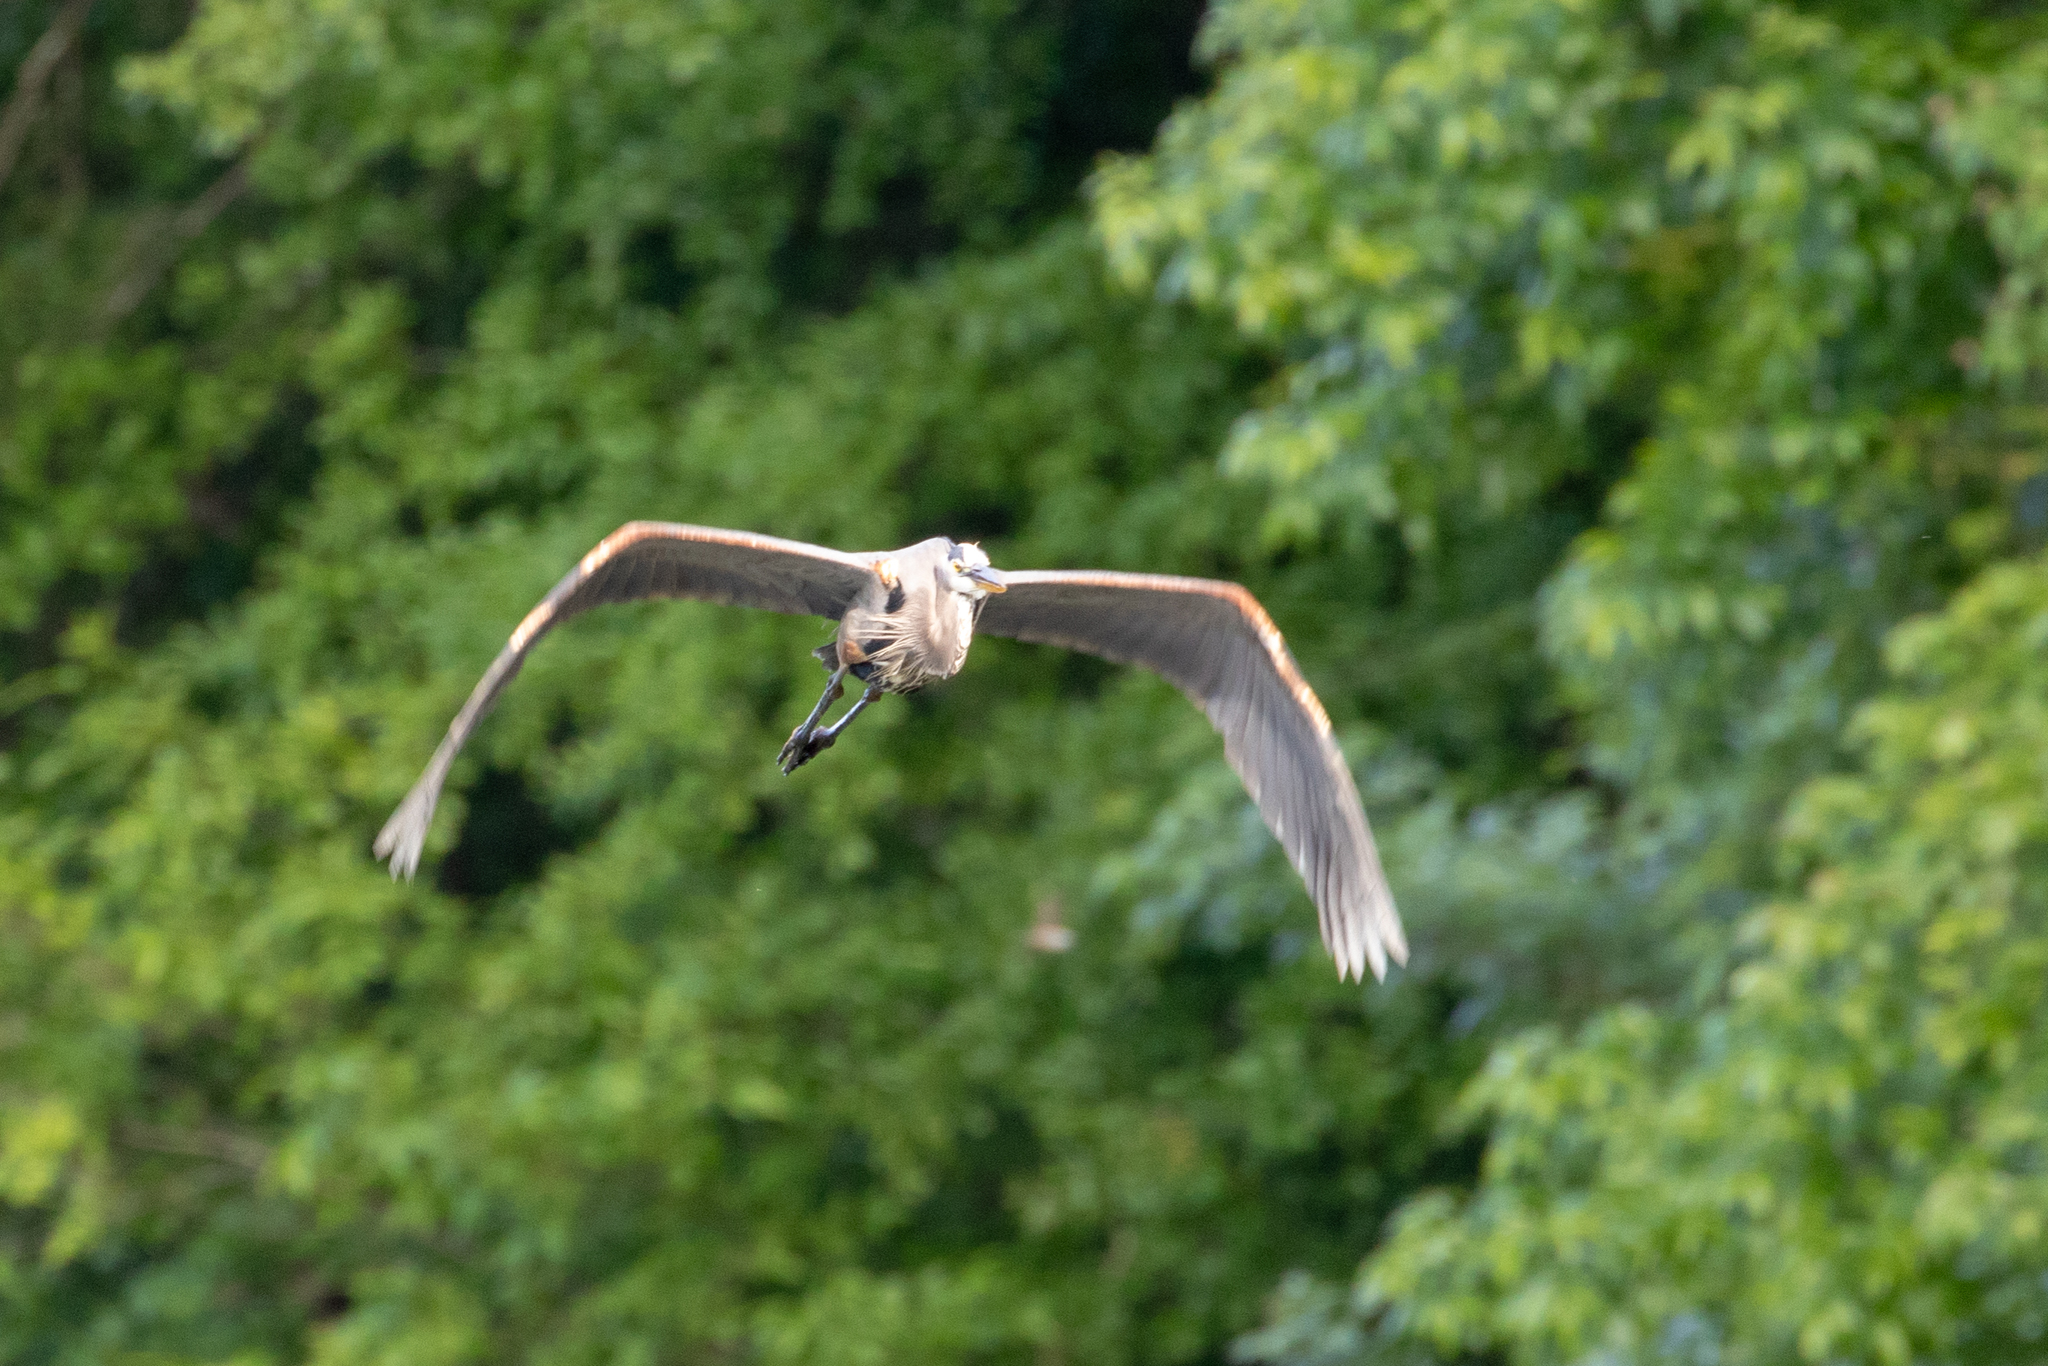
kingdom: Animalia
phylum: Chordata
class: Aves
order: Pelecaniformes
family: Ardeidae
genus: Ardea
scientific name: Ardea herodias
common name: Great blue heron
